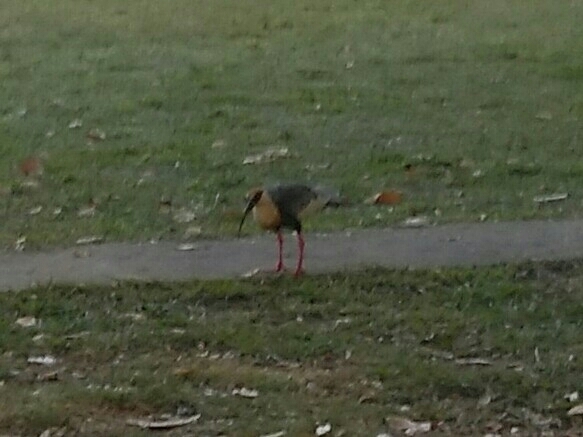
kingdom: Animalia
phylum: Chordata
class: Aves
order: Pelecaniformes
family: Threskiornithidae
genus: Theristicus
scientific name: Theristicus caudatus
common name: Buff-necked ibis
